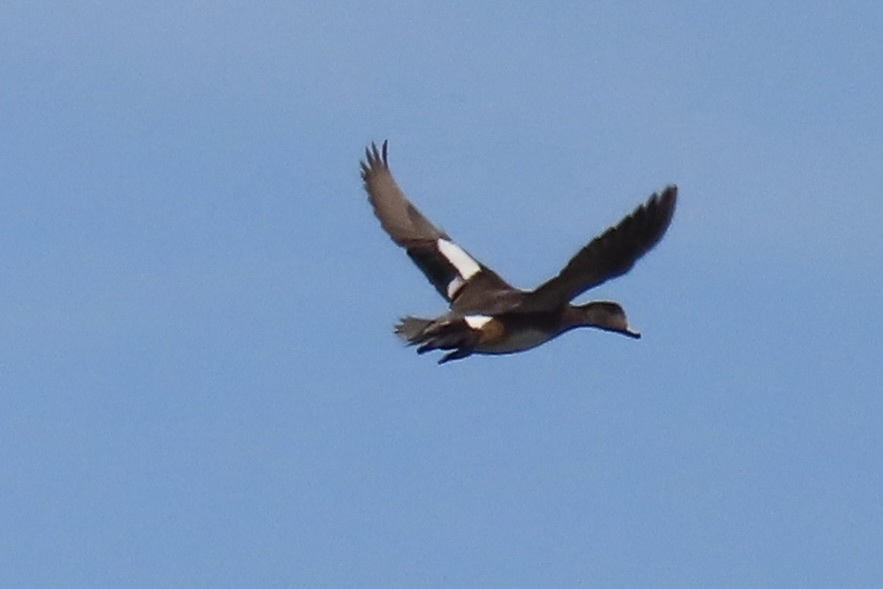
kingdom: Animalia
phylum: Chordata
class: Aves
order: Anseriformes
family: Anatidae
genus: Mareca
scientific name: Mareca americana
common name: American wigeon
